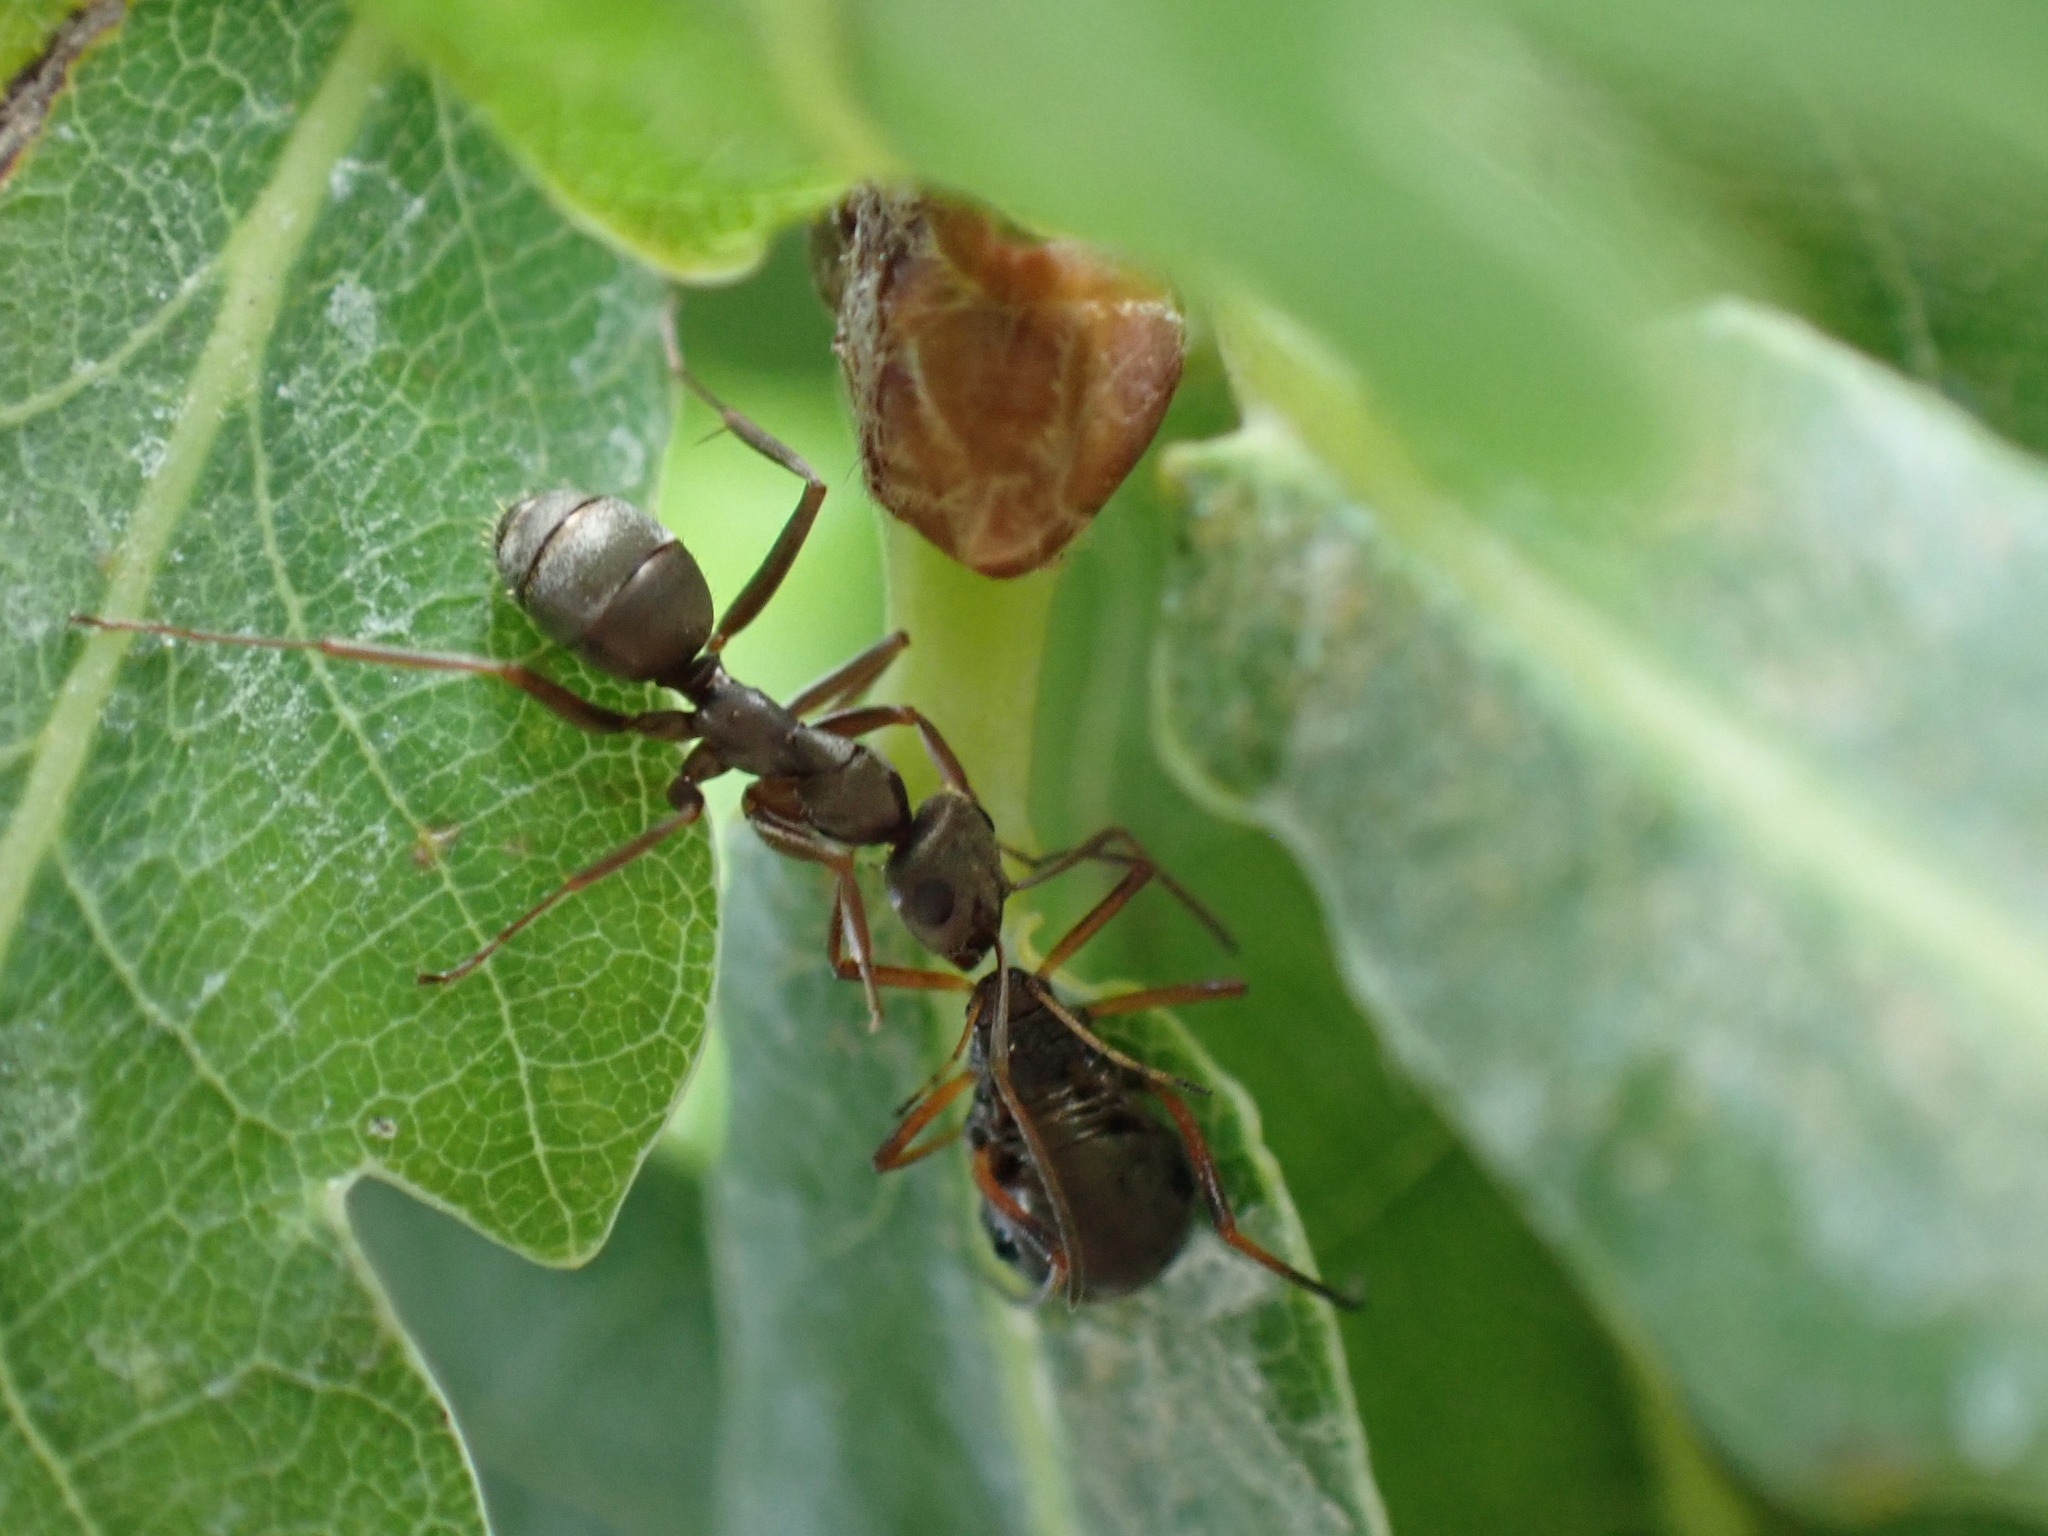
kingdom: Animalia
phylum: Arthropoda
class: Insecta
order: Hymenoptera
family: Formicidae
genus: Formica
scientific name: Formica cinerea
